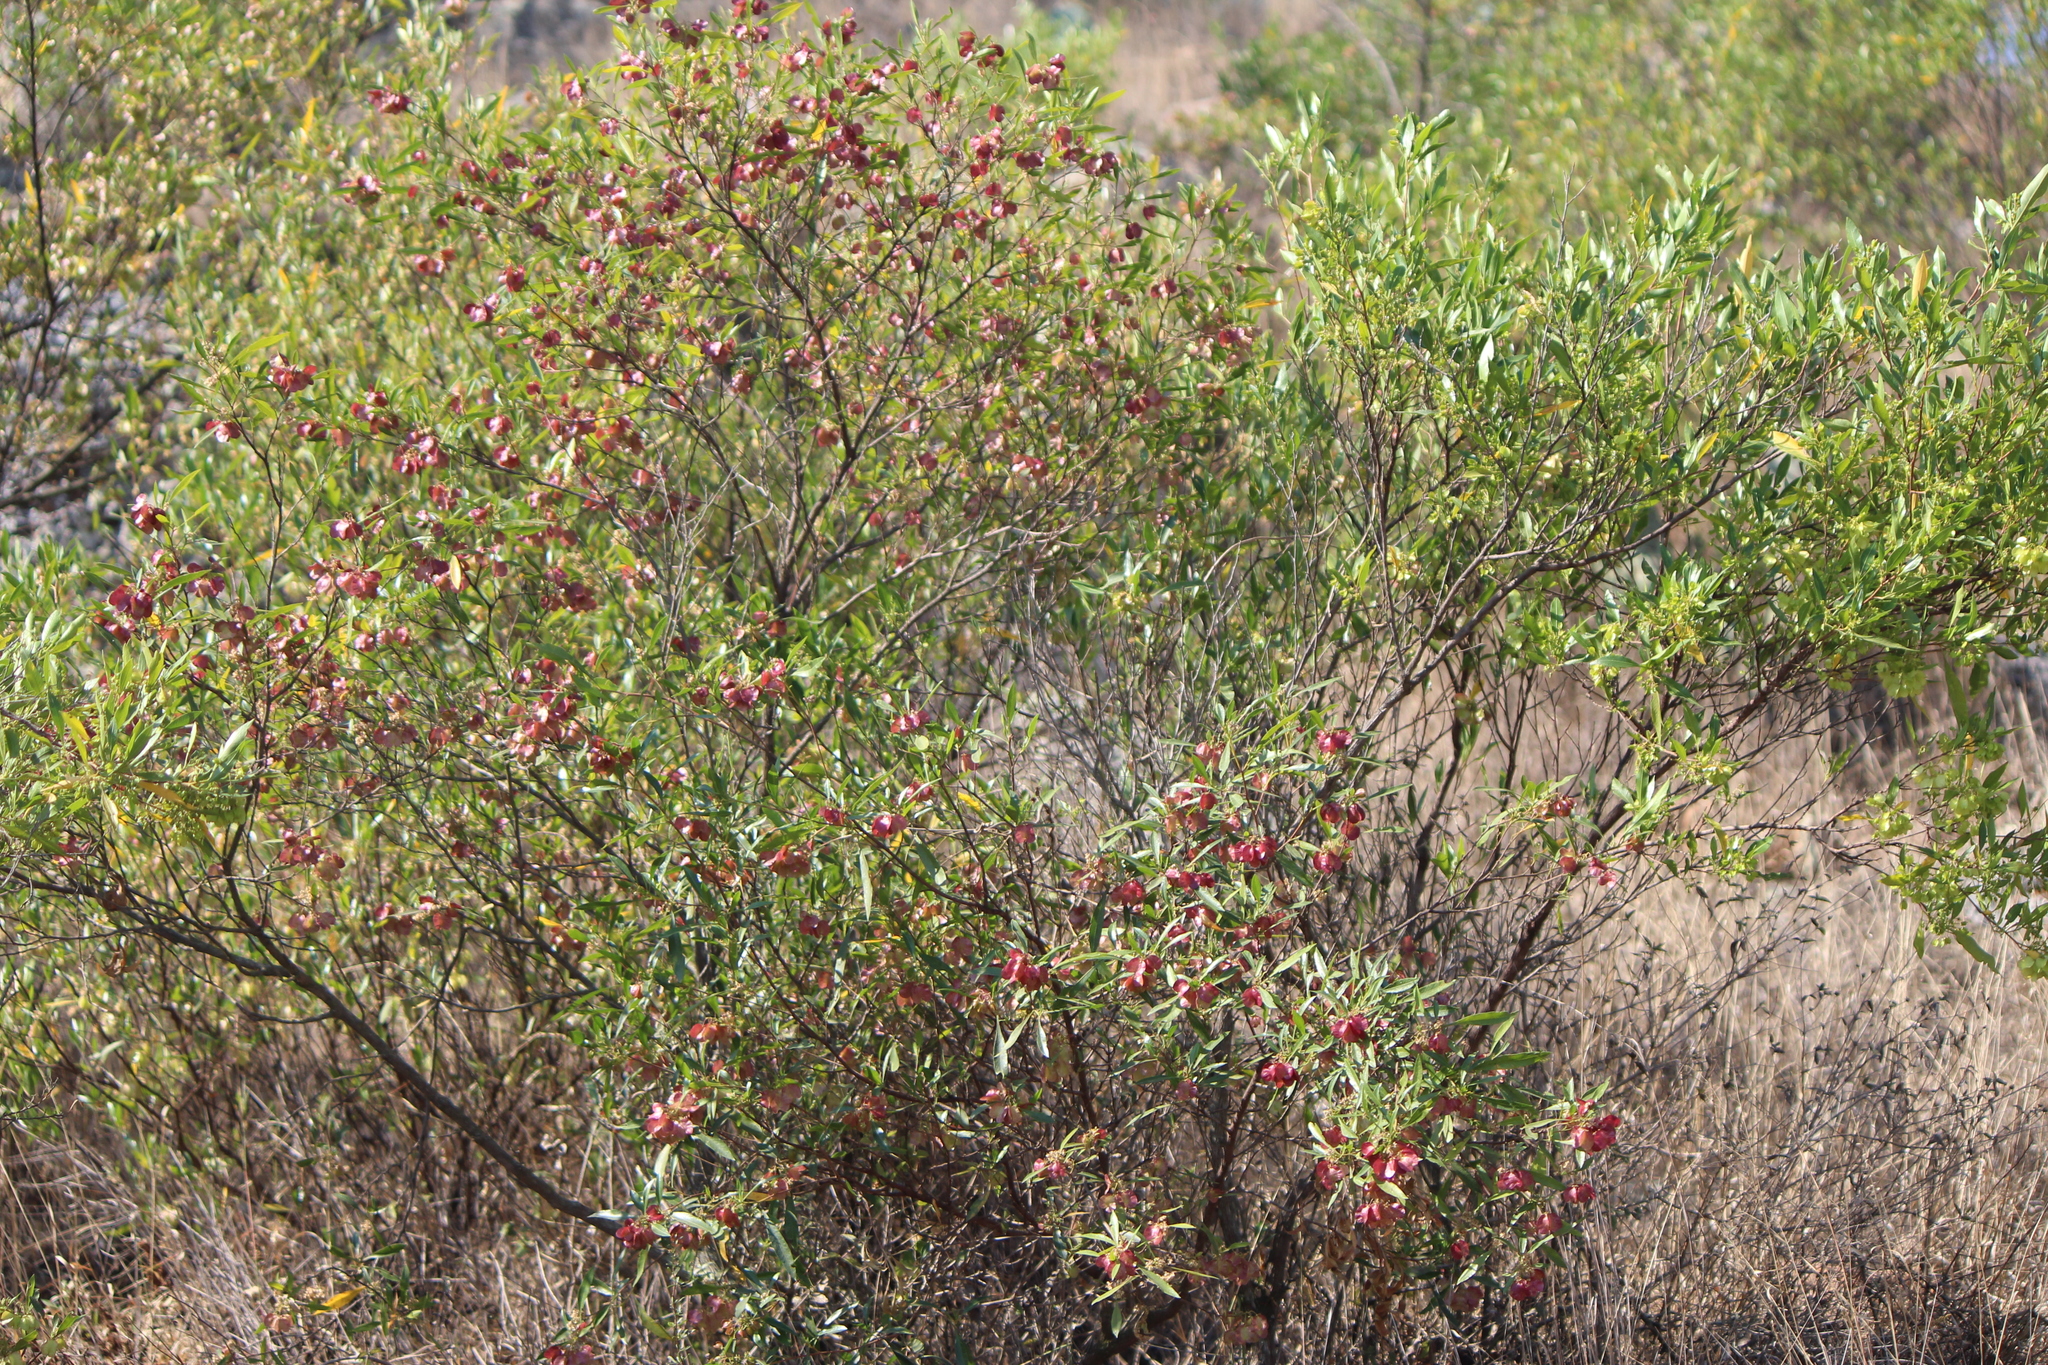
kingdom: Plantae
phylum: Tracheophyta
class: Magnoliopsida
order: Sapindales
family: Sapindaceae
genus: Dodonaea
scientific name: Dodonaea viscosa
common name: Hopbush
